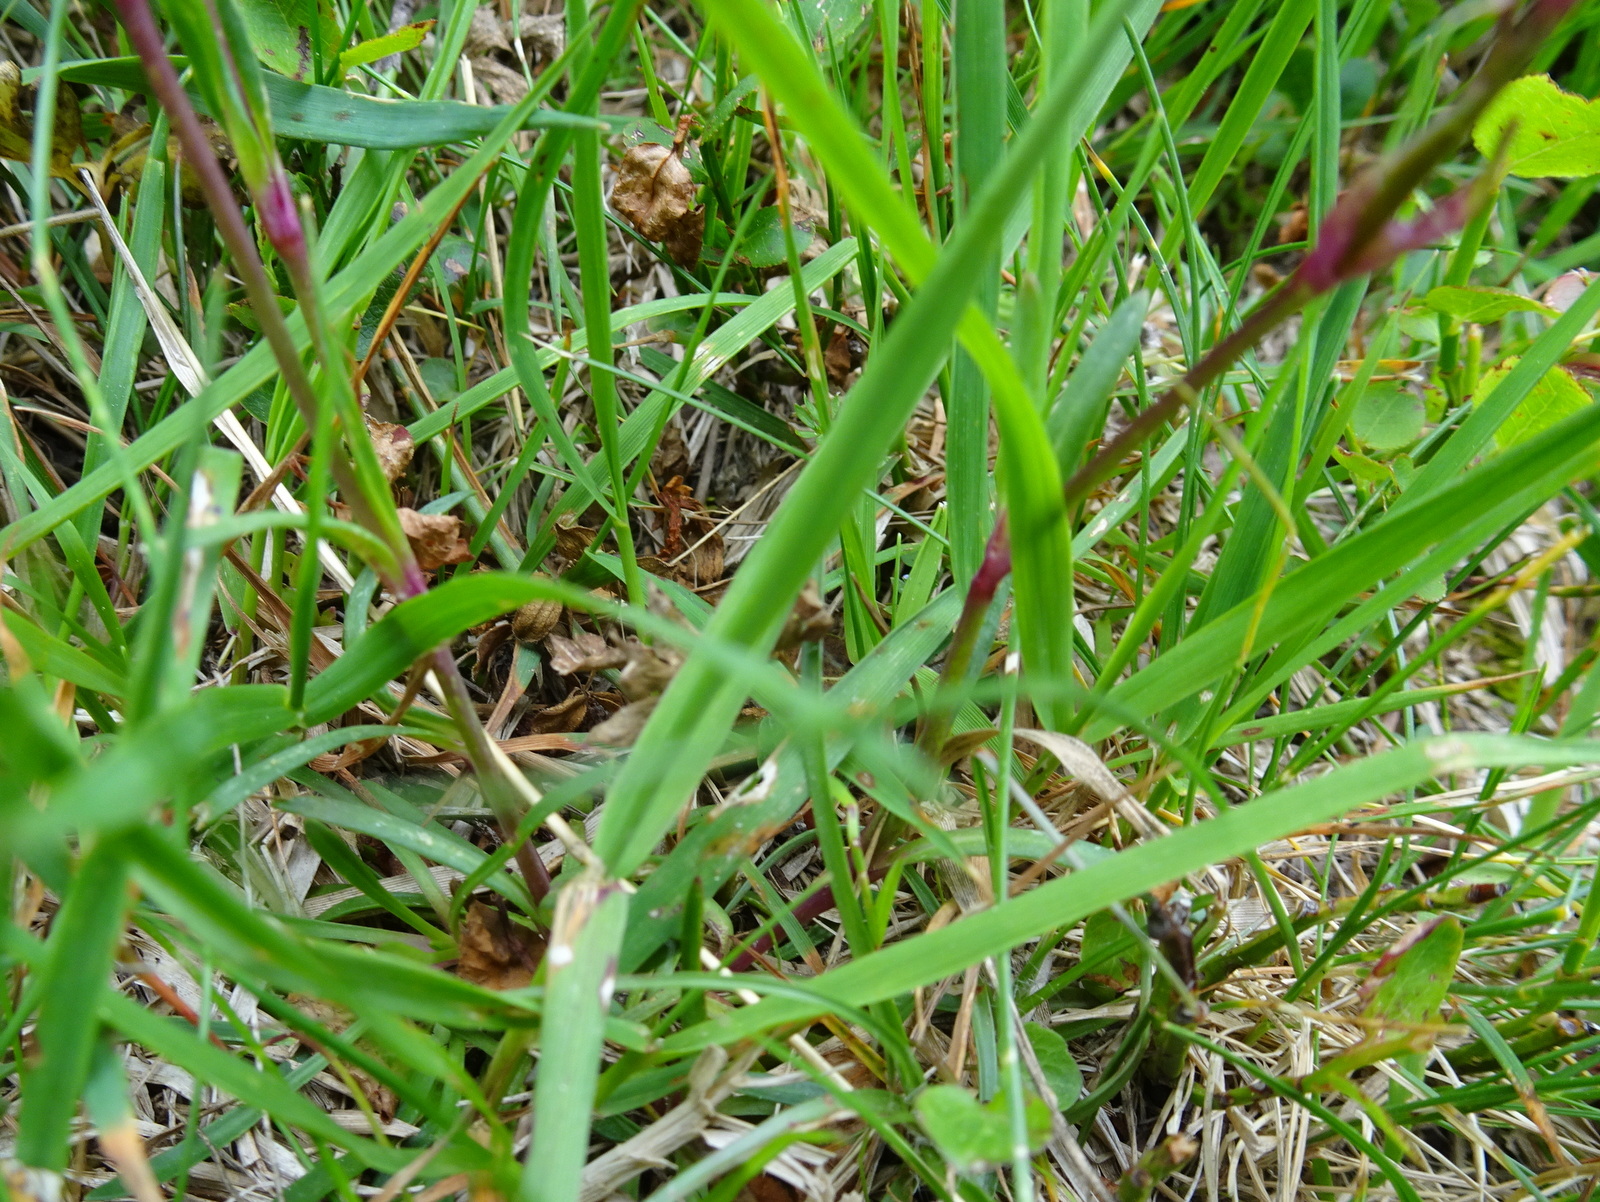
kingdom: Plantae
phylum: Tracheophyta
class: Magnoliopsida
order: Caryophyllales
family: Caryophyllaceae
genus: Viscaria
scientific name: Viscaria alpina
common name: Alpine campion
